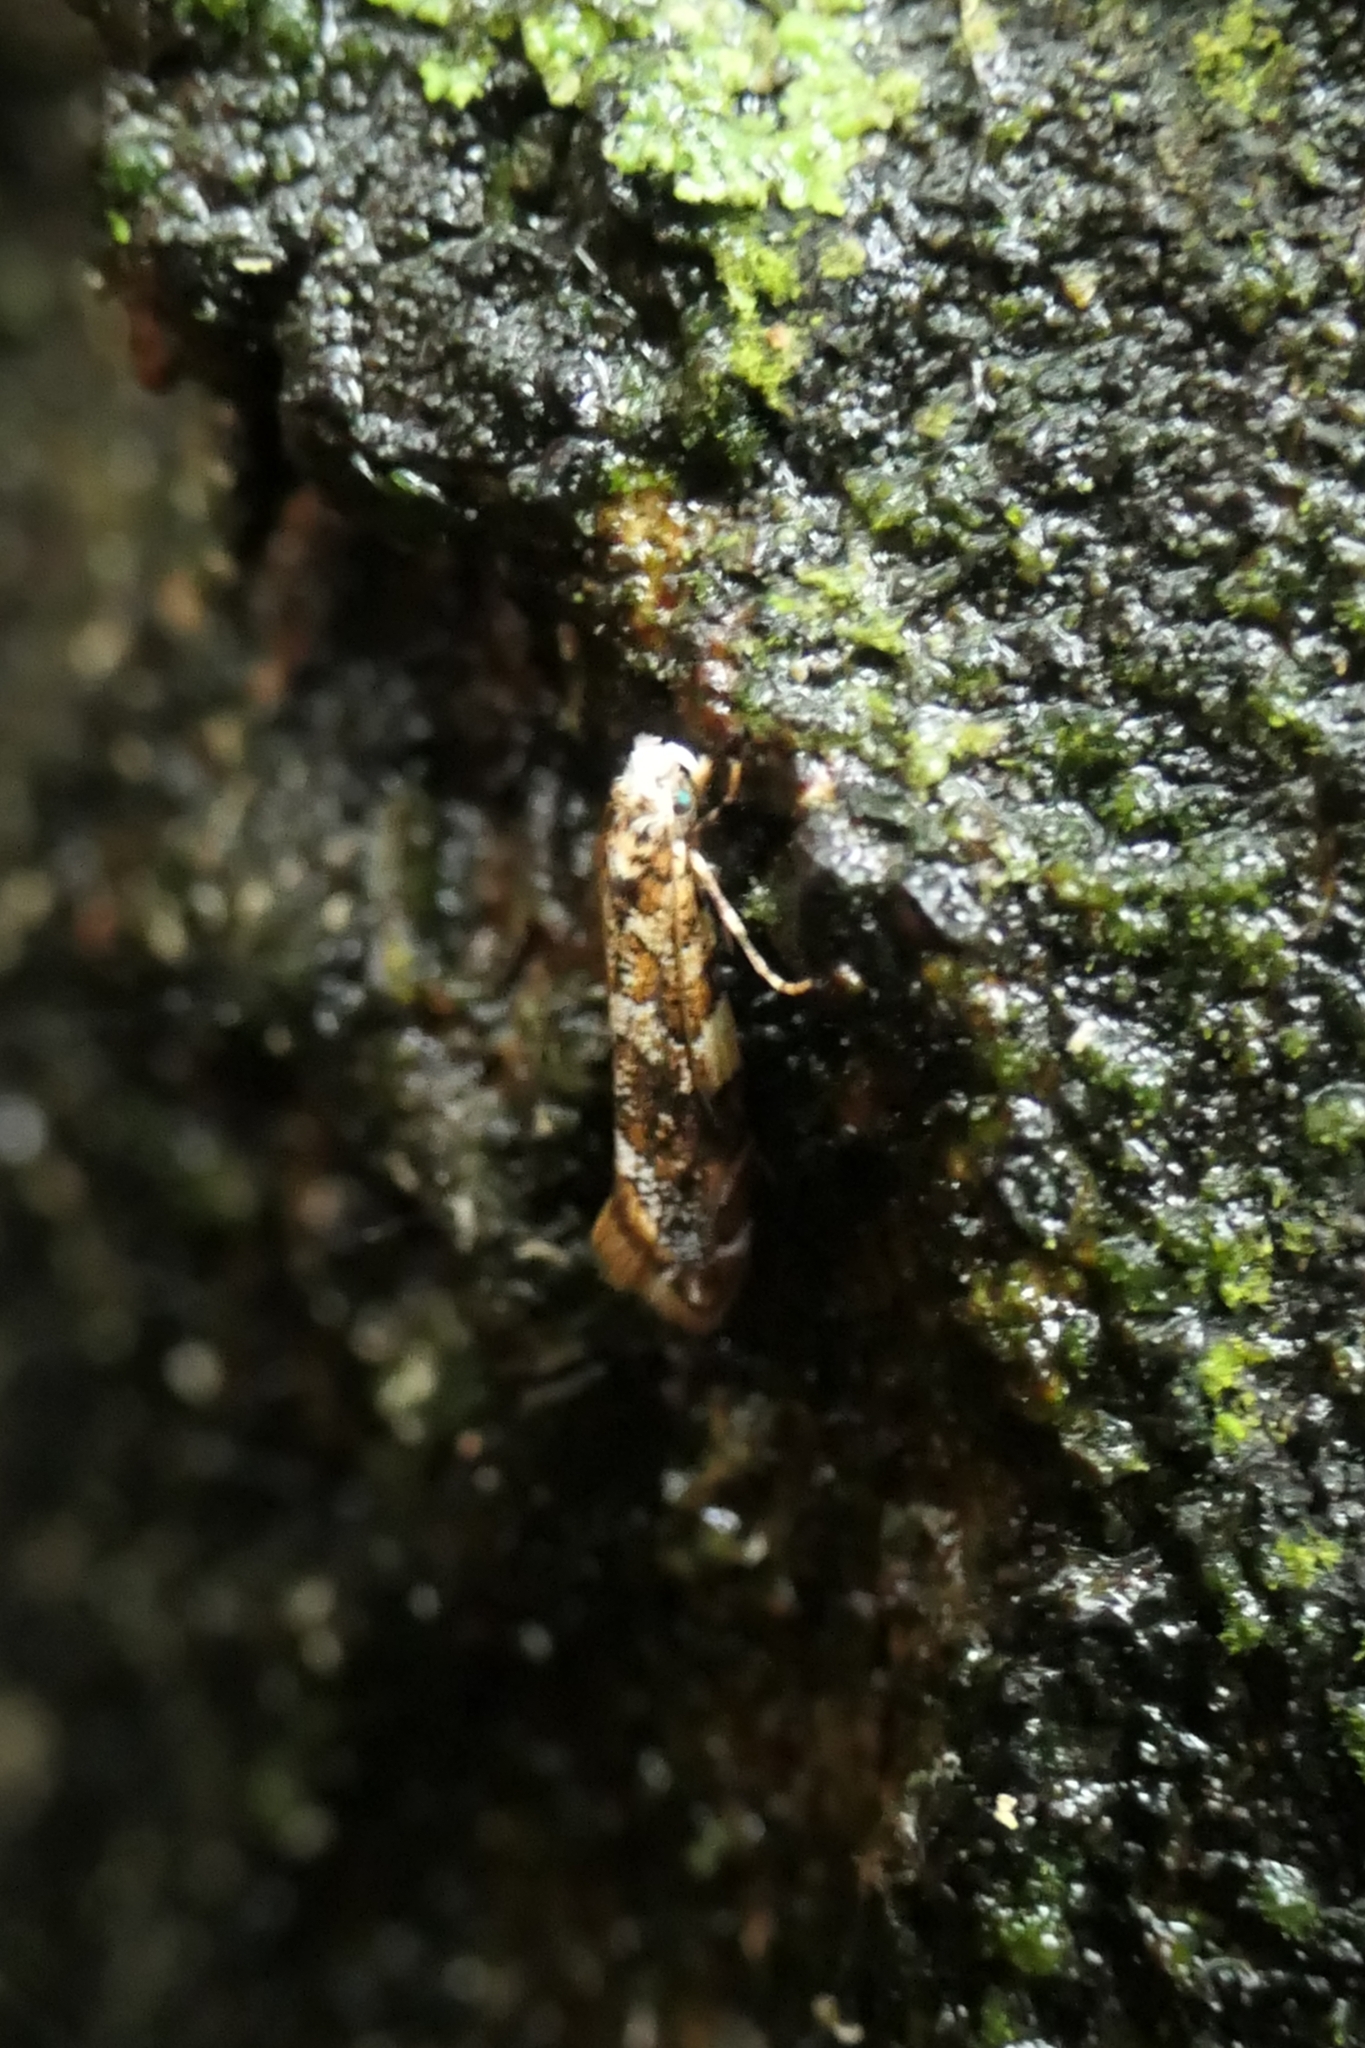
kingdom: Animalia
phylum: Arthropoda
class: Insecta
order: Lepidoptera
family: Tineidae
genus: Eschatotypa
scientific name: Eschatotypa derogatella
